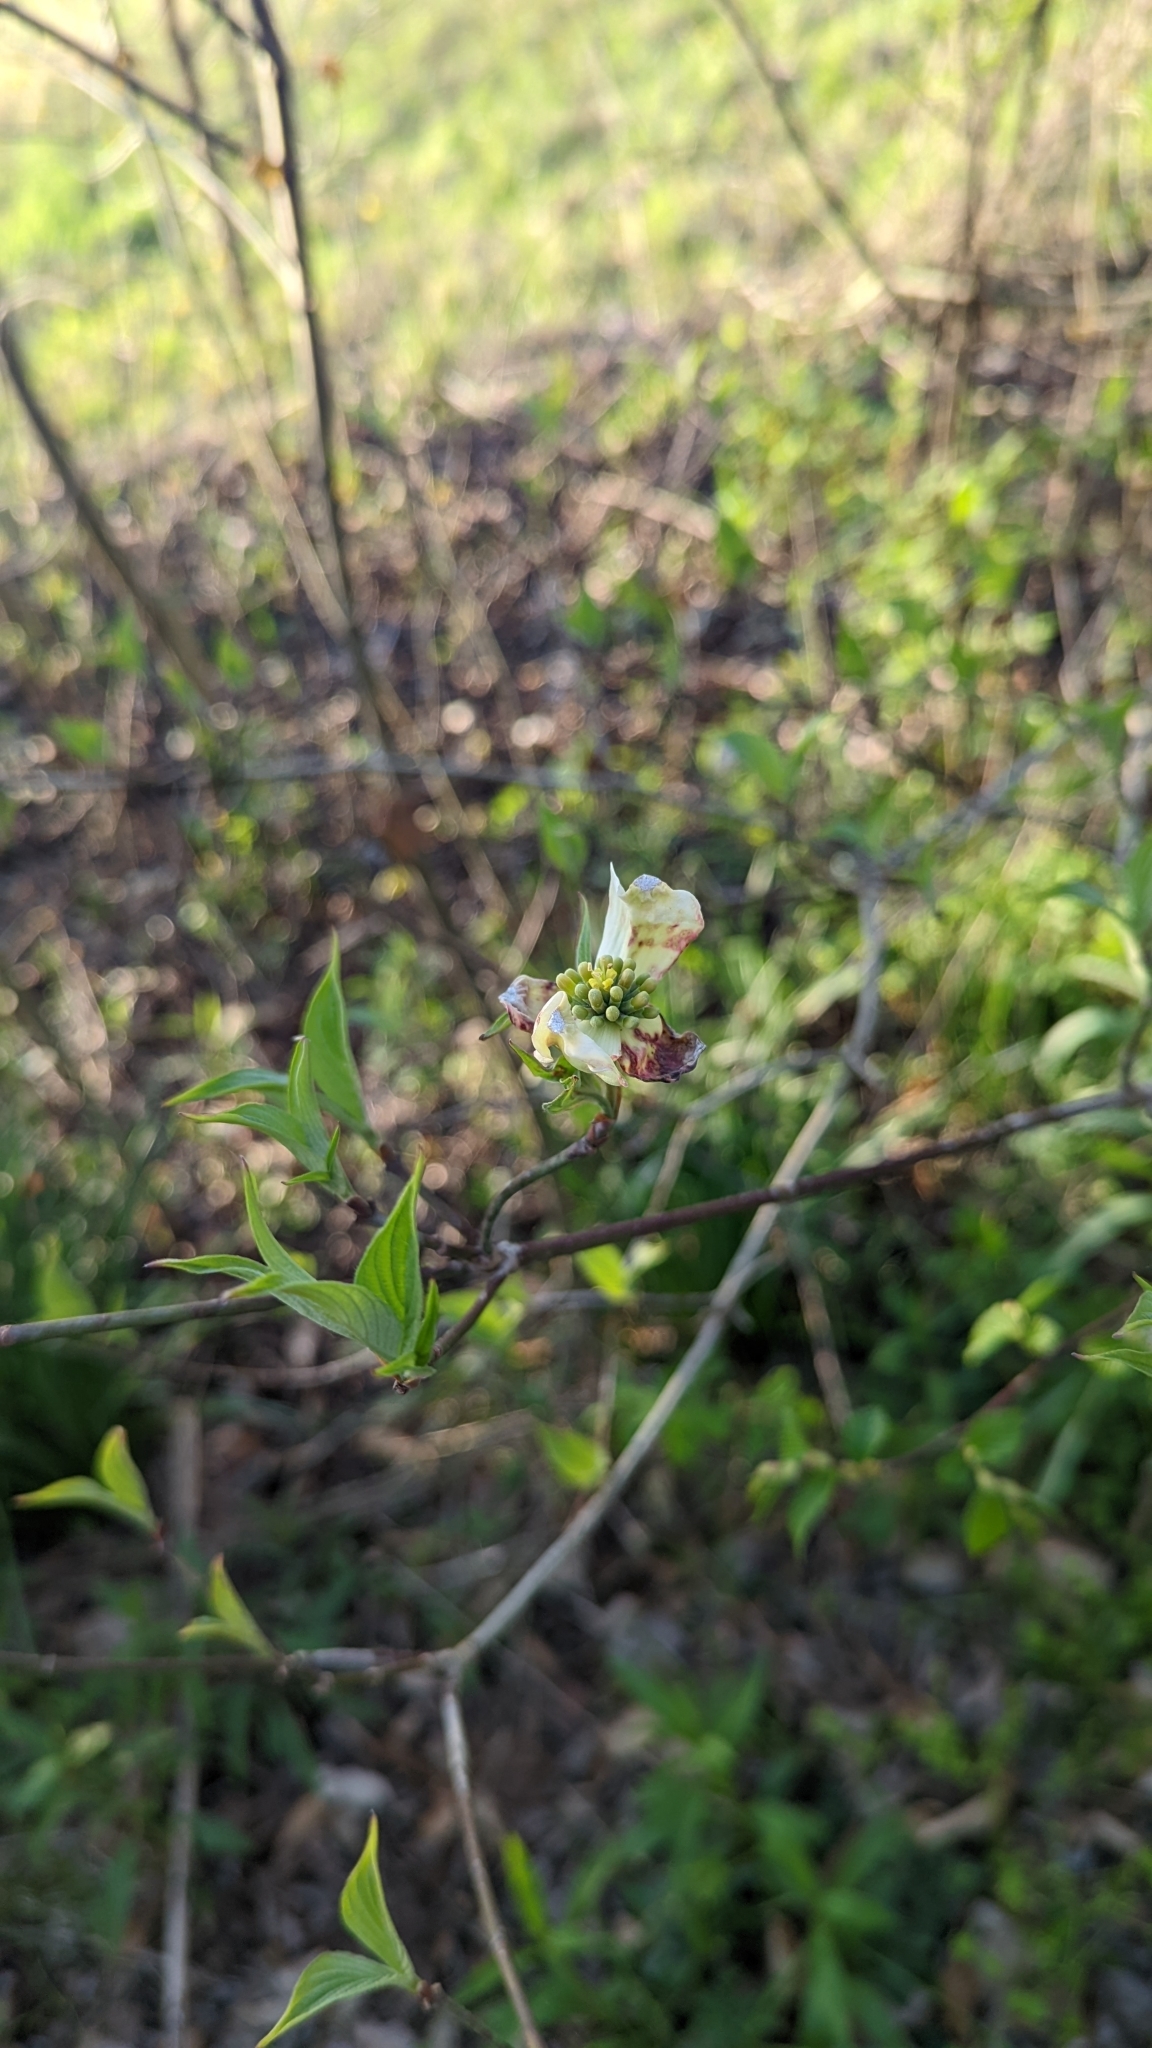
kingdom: Plantae
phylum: Tracheophyta
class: Magnoliopsida
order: Cornales
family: Cornaceae
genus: Cornus
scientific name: Cornus florida
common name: Flowering dogwood
